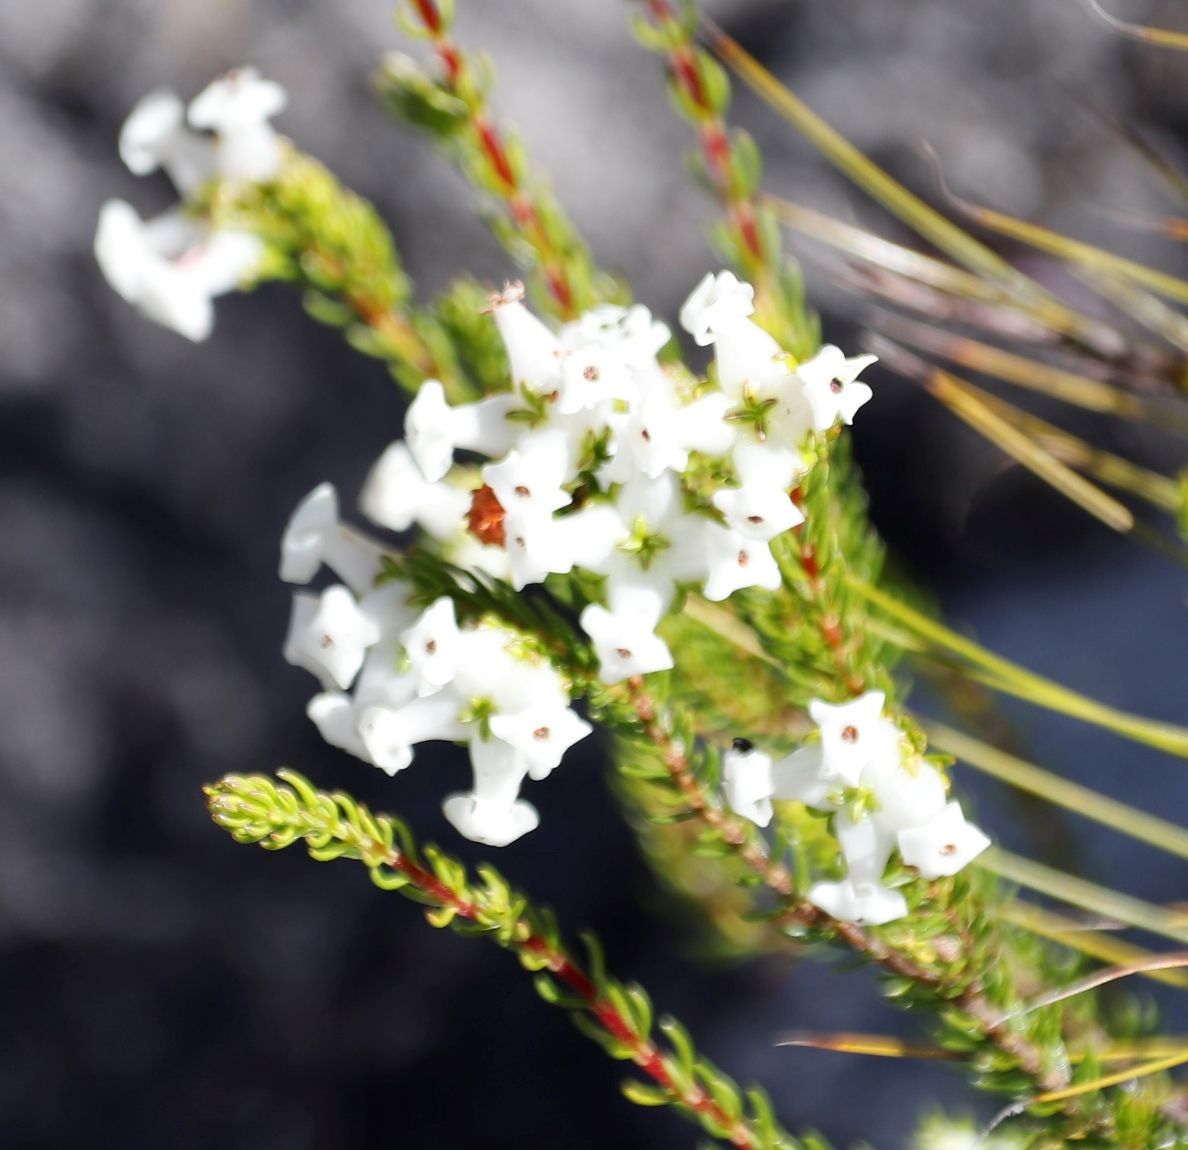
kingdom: Plantae
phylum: Tracheophyta
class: Magnoliopsida
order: Ericales
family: Ericaceae
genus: Erica
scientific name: Erica denticulata
